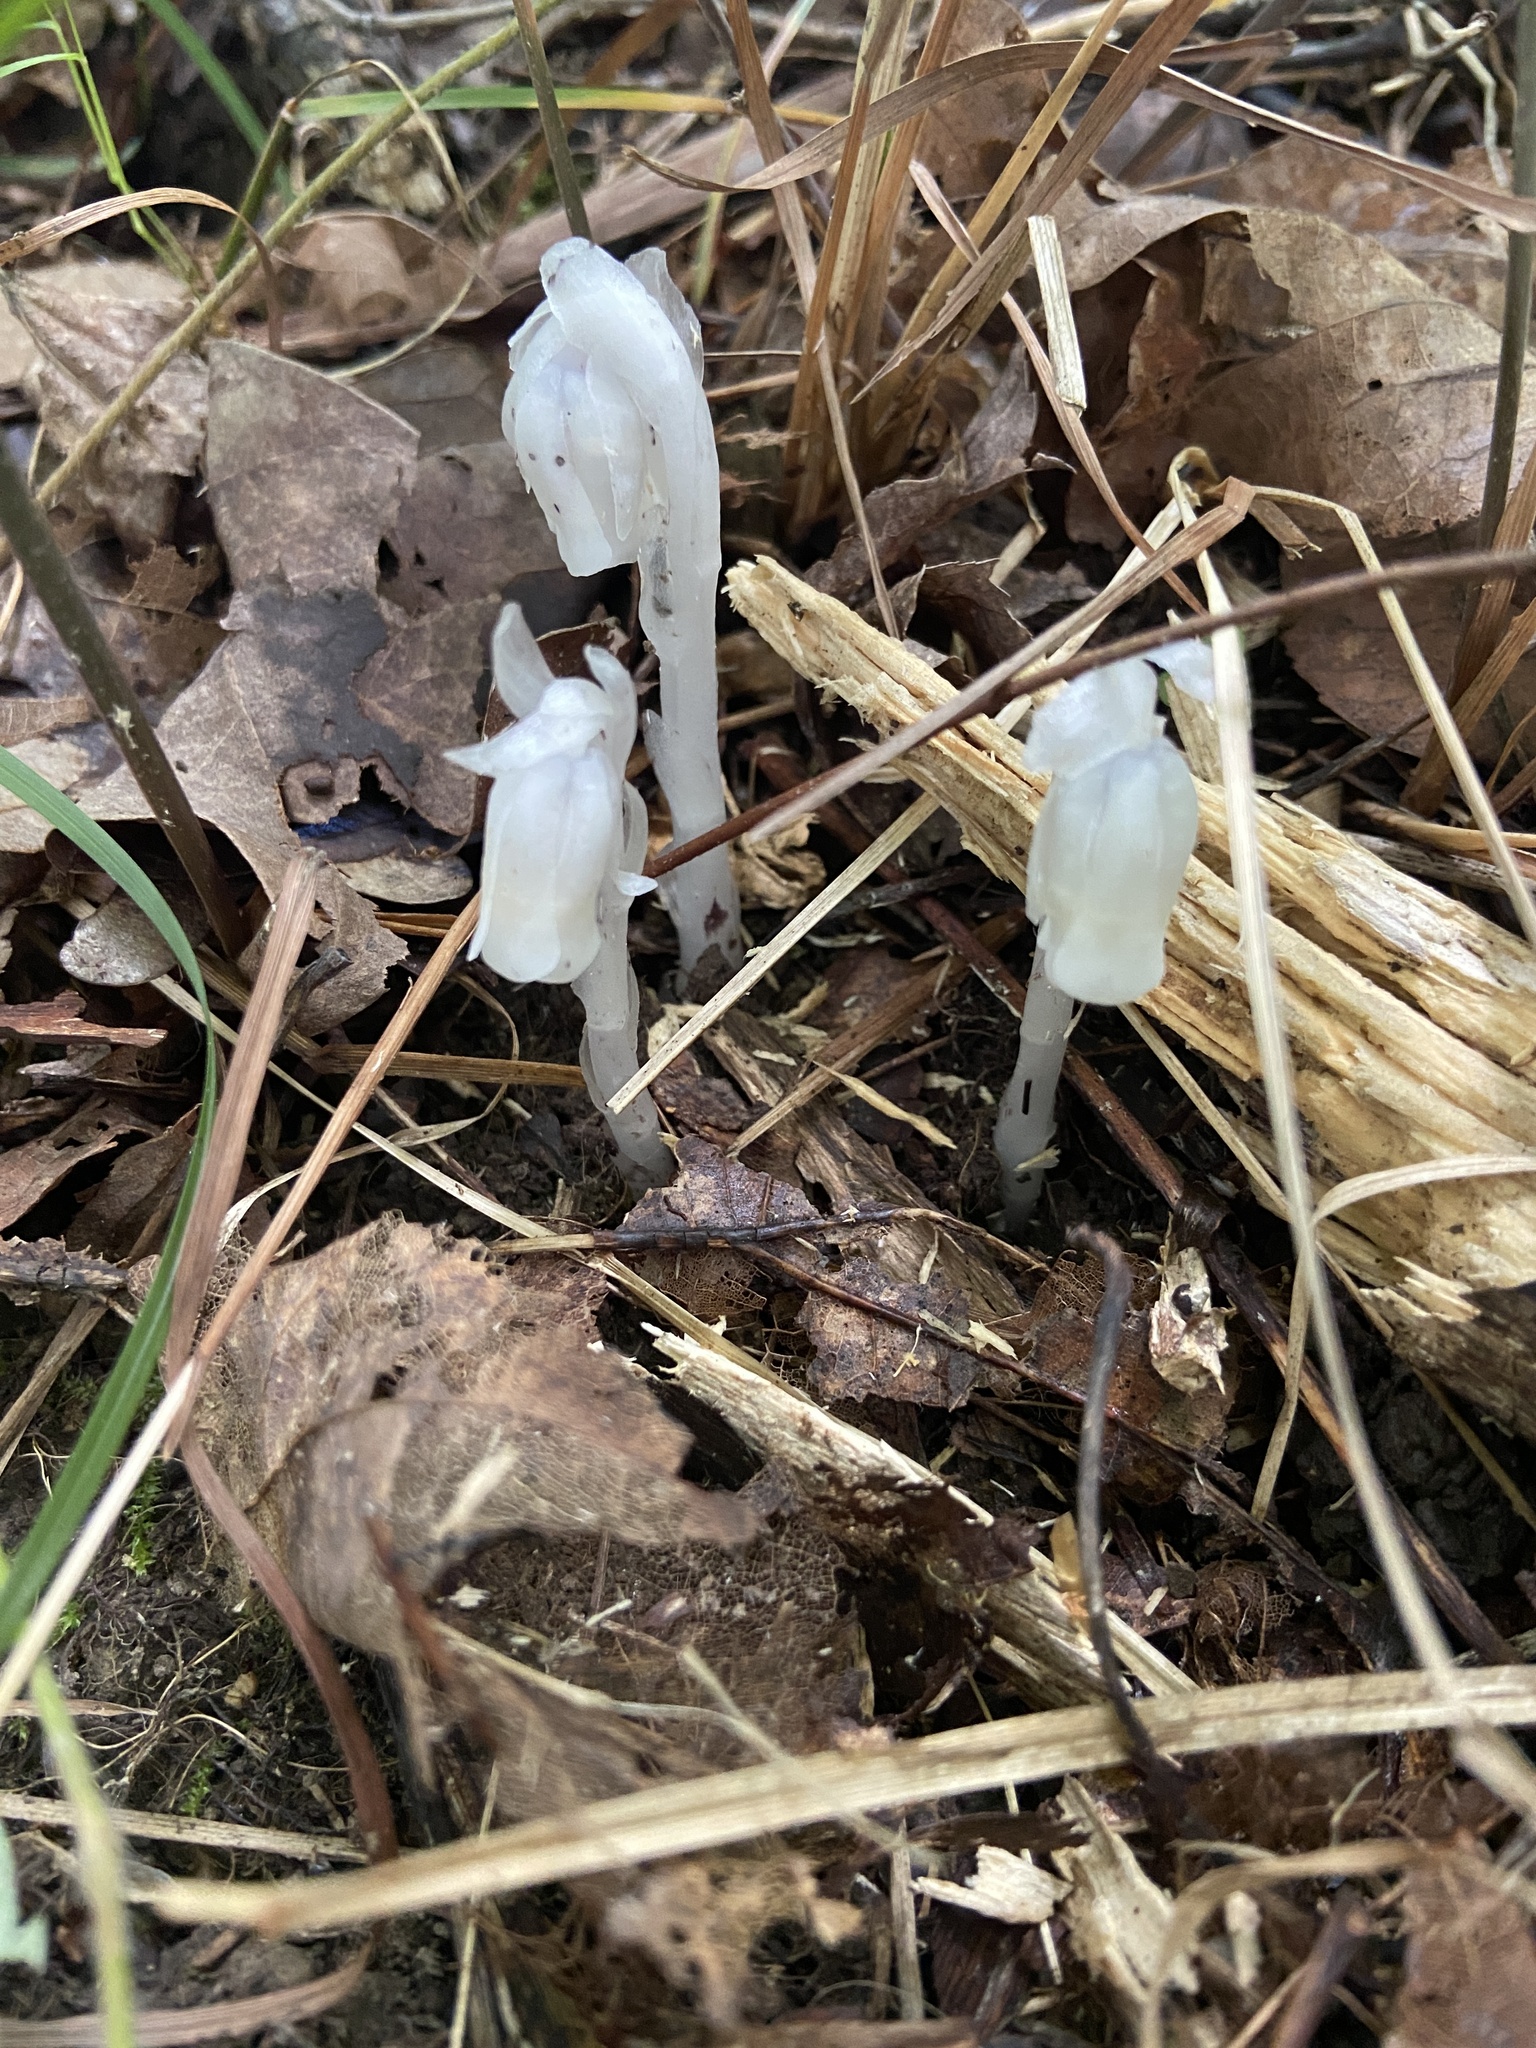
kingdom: Plantae
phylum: Tracheophyta
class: Magnoliopsida
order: Ericales
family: Ericaceae
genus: Monotropa
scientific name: Monotropa uniflora
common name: Convulsion root
